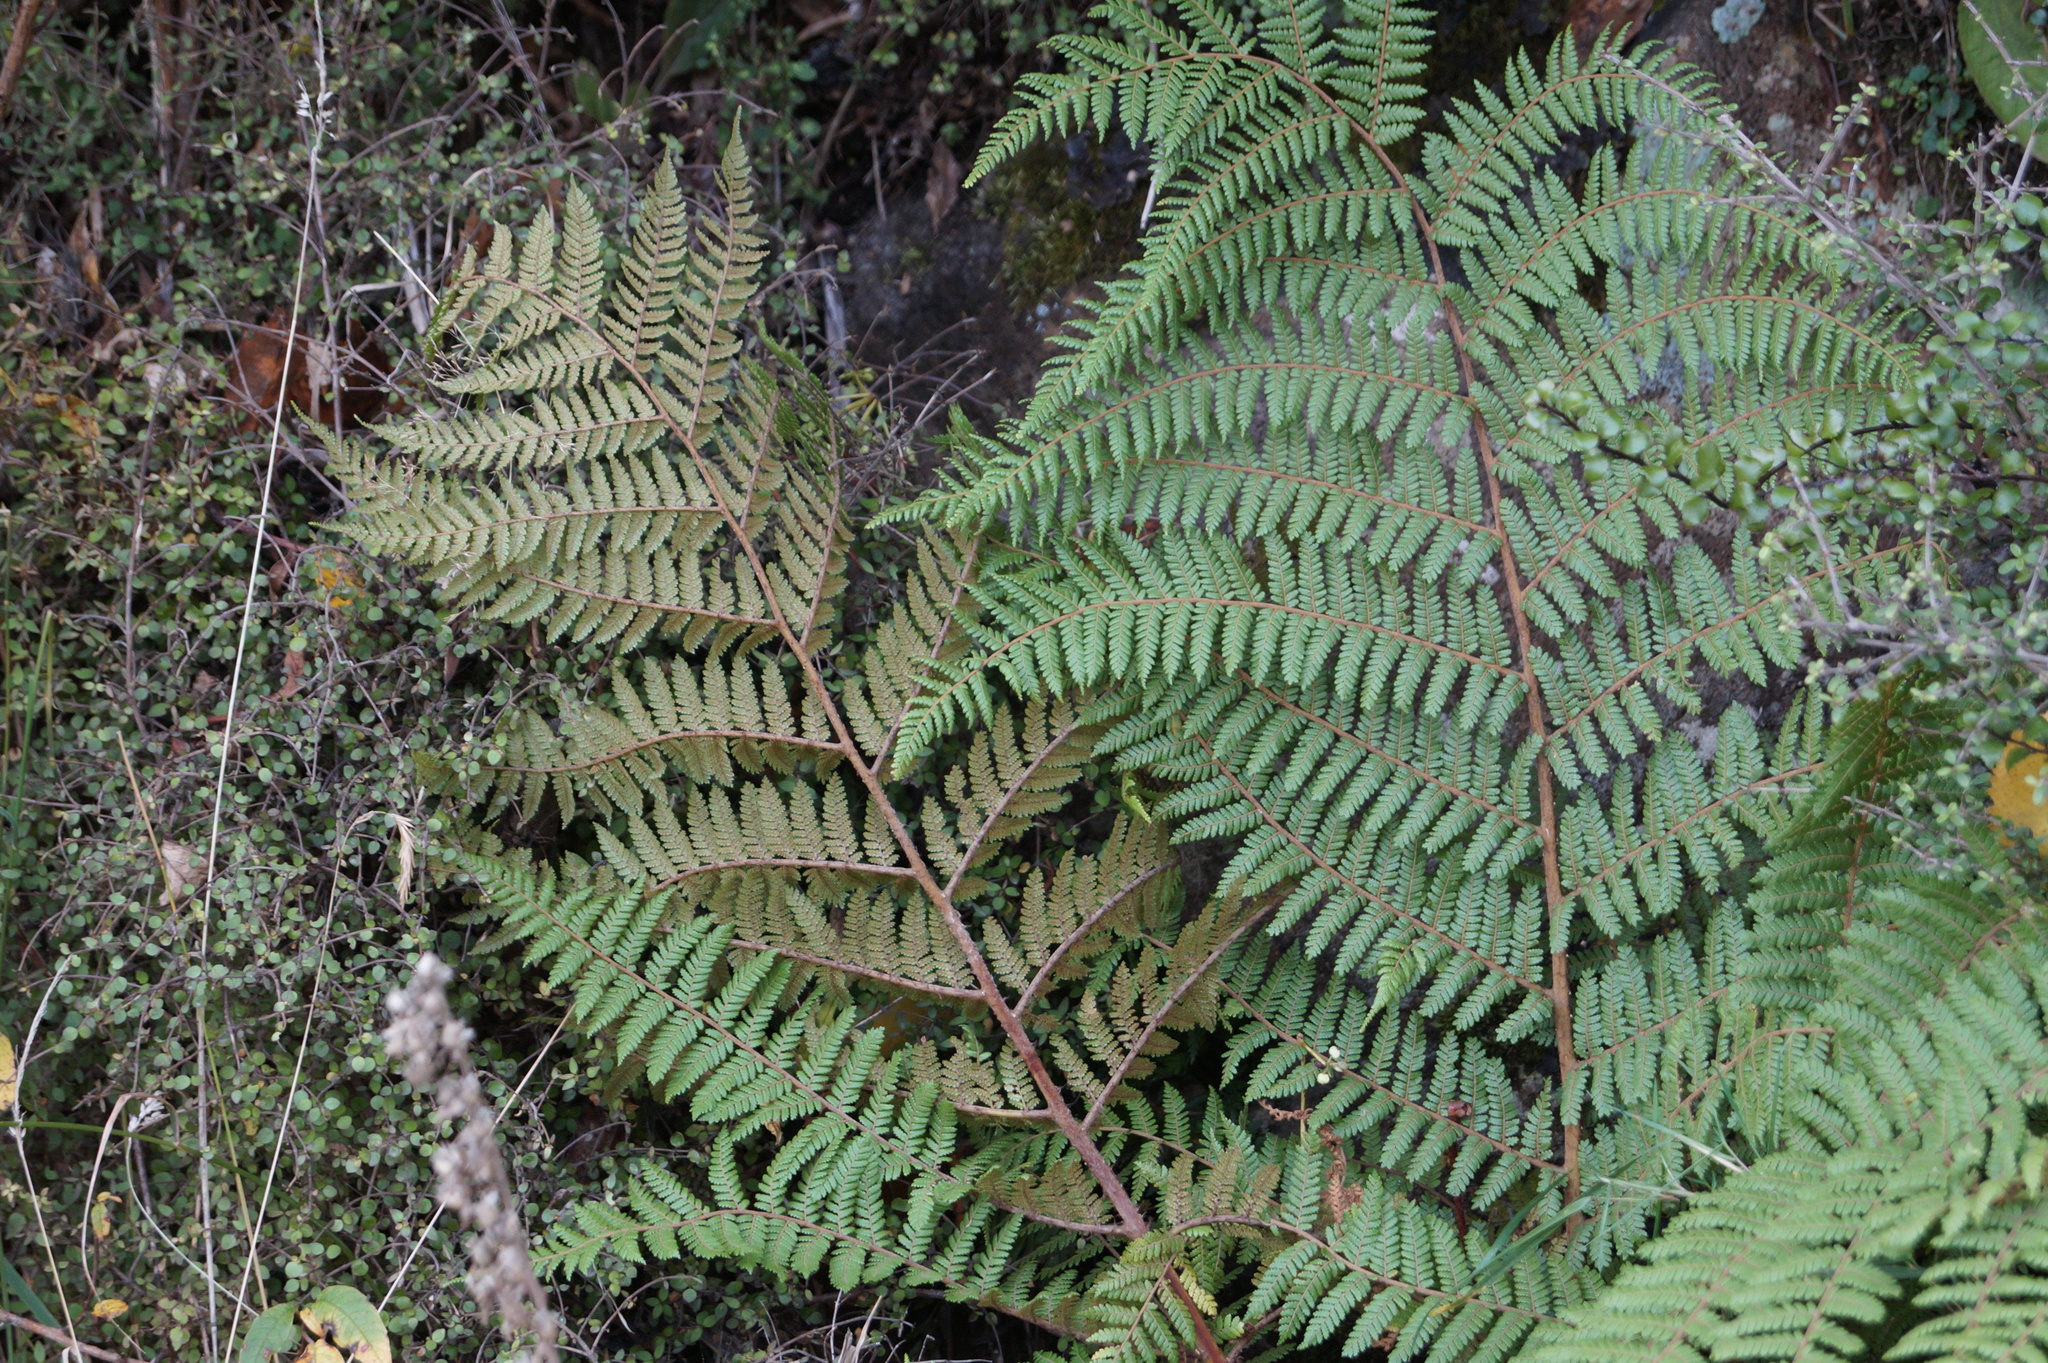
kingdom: Plantae
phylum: Tracheophyta
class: Polypodiopsida
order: Cyatheales
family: Cyatheaceae
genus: Alsophila
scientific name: Alsophila smithii
